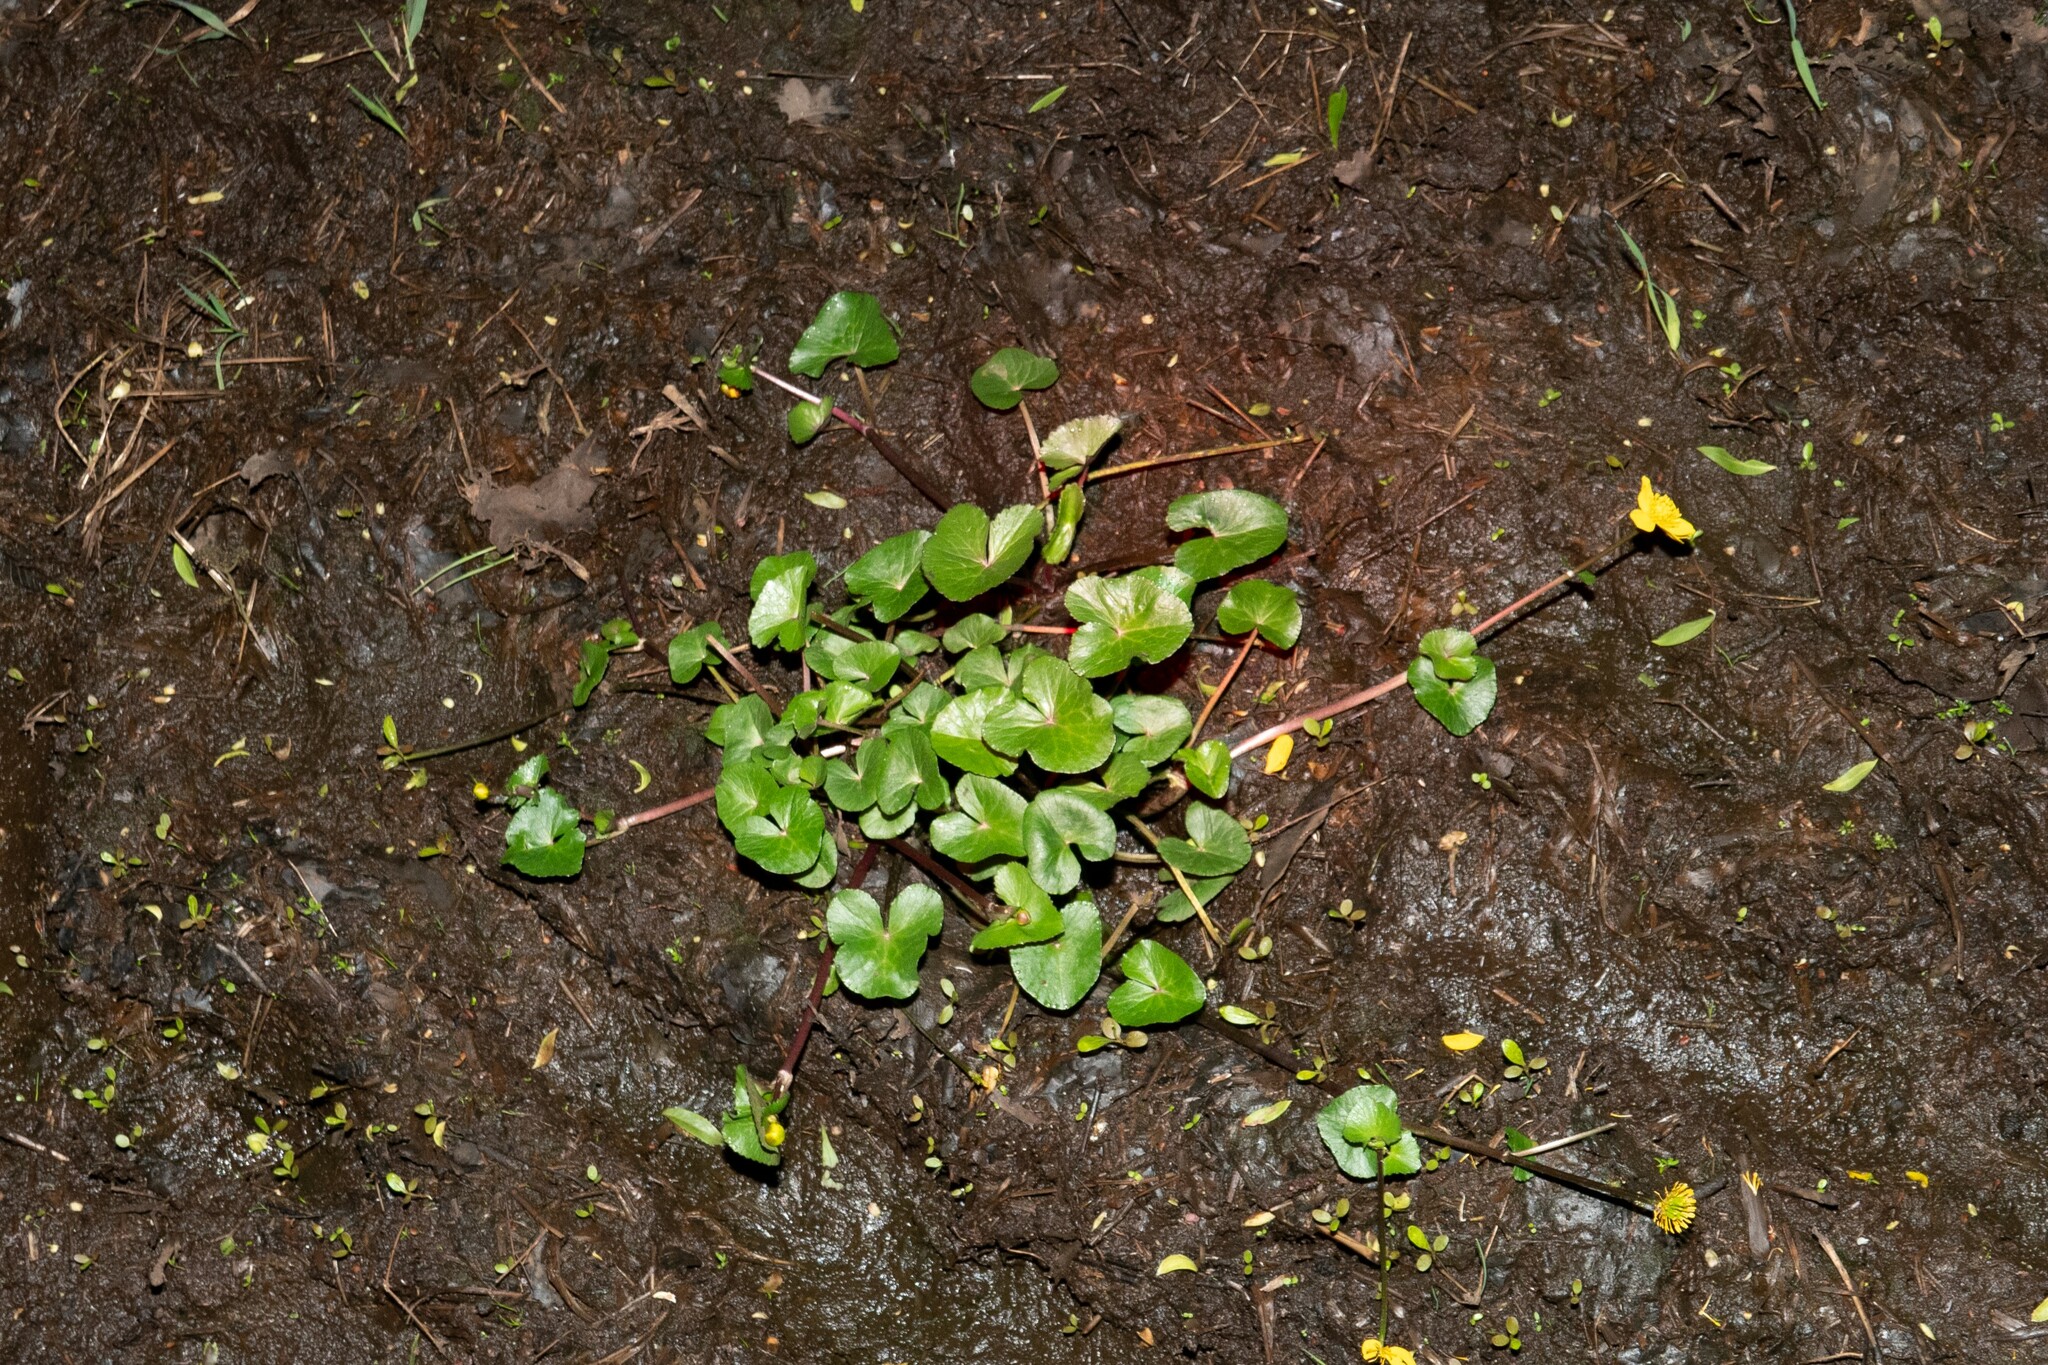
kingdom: Plantae
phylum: Tracheophyta
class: Magnoliopsida
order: Ranunculales
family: Ranunculaceae
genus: Caltha
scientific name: Caltha palustris
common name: Marsh marigold
